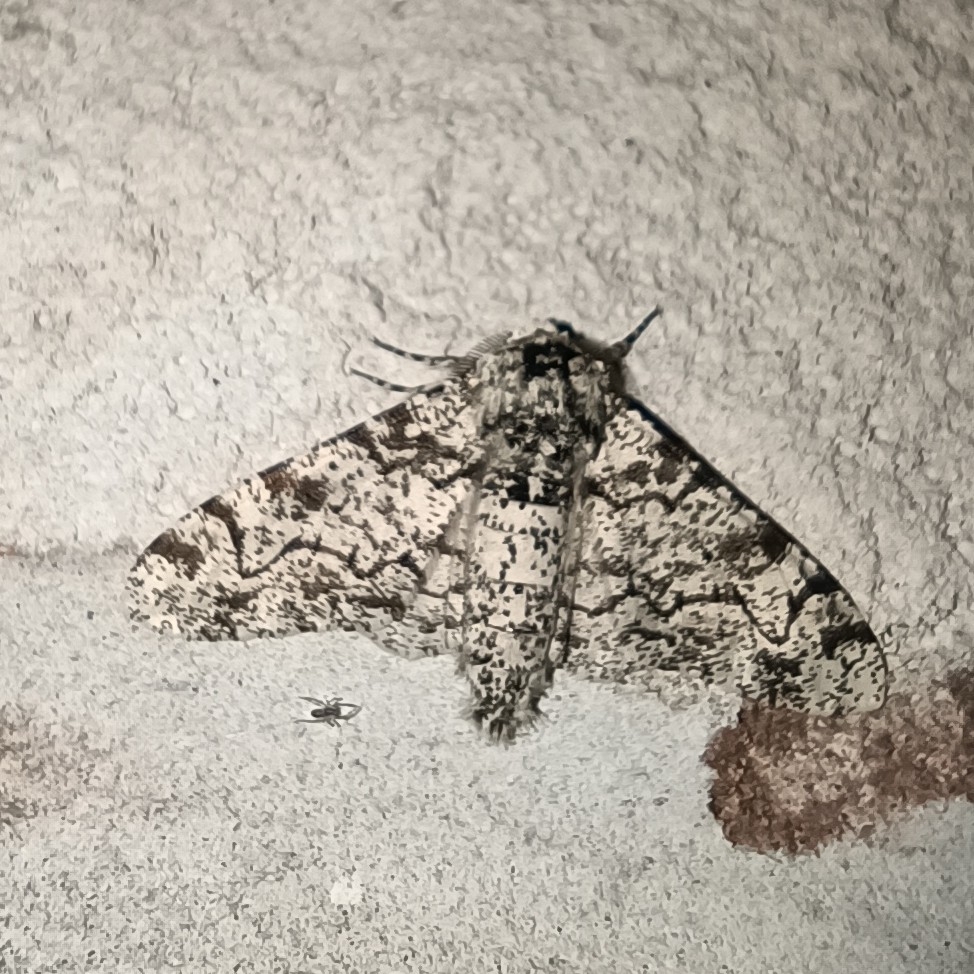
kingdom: Animalia
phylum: Arthropoda
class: Insecta
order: Lepidoptera
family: Geometridae
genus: Biston
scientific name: Biston betularia
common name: Peppered moth
